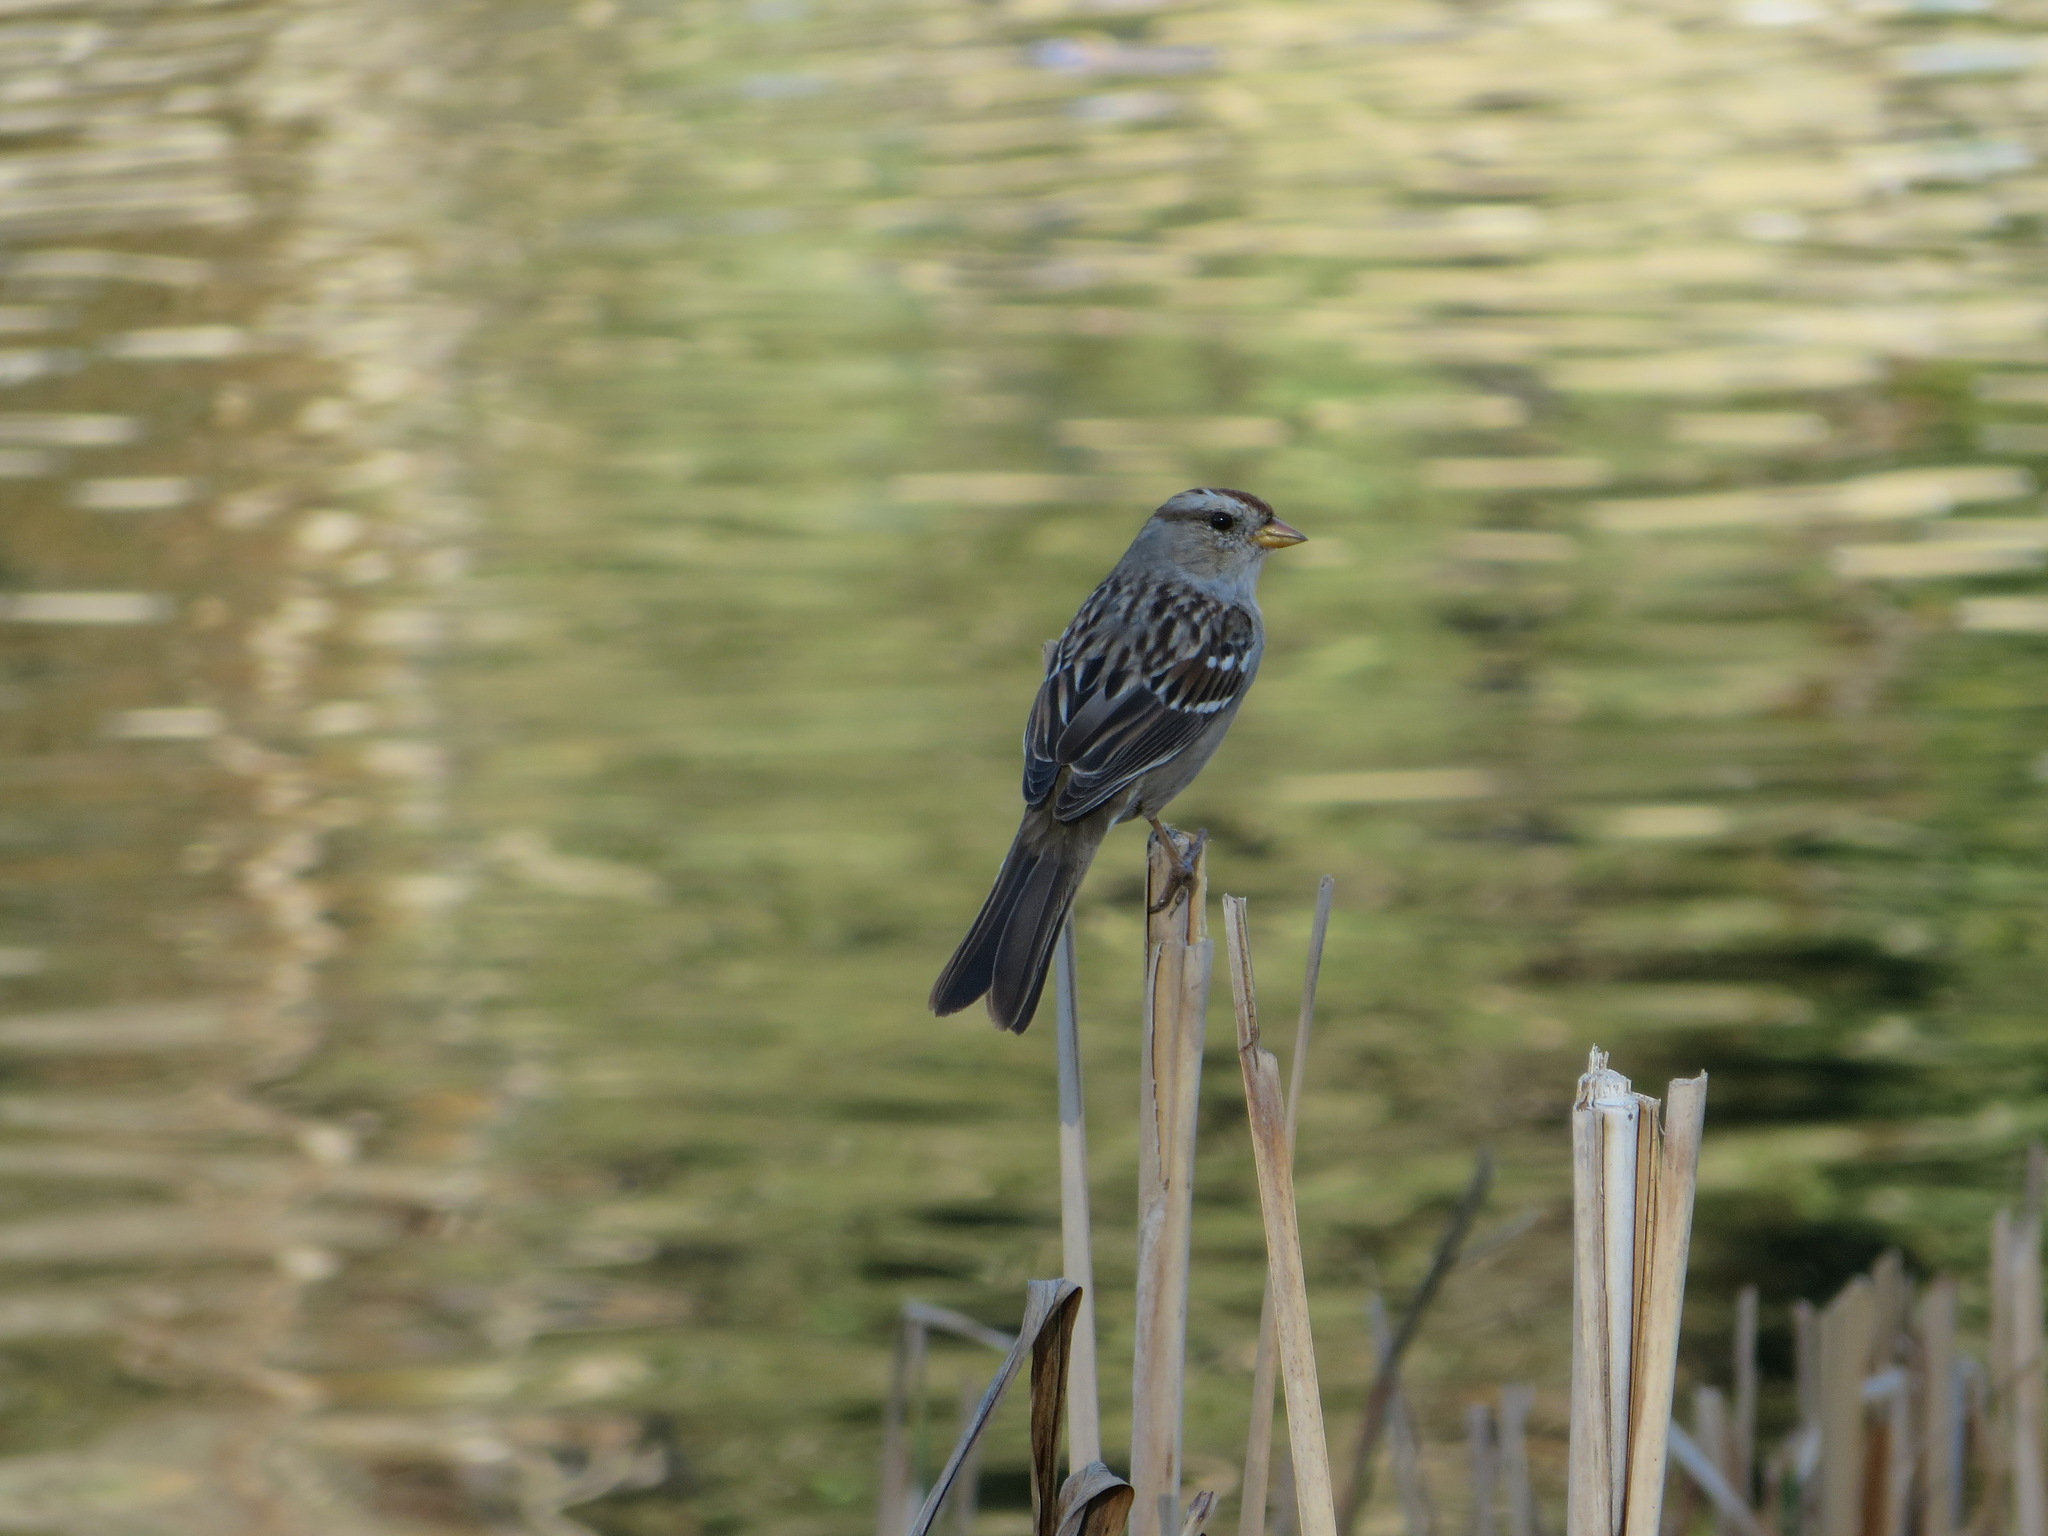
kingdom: Animalia
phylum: Chordata
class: Aves
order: Passeriformes
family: Passerellidae
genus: Zonotrichia
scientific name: Zonotrichia leucophrys
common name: White-crowned sparrow
